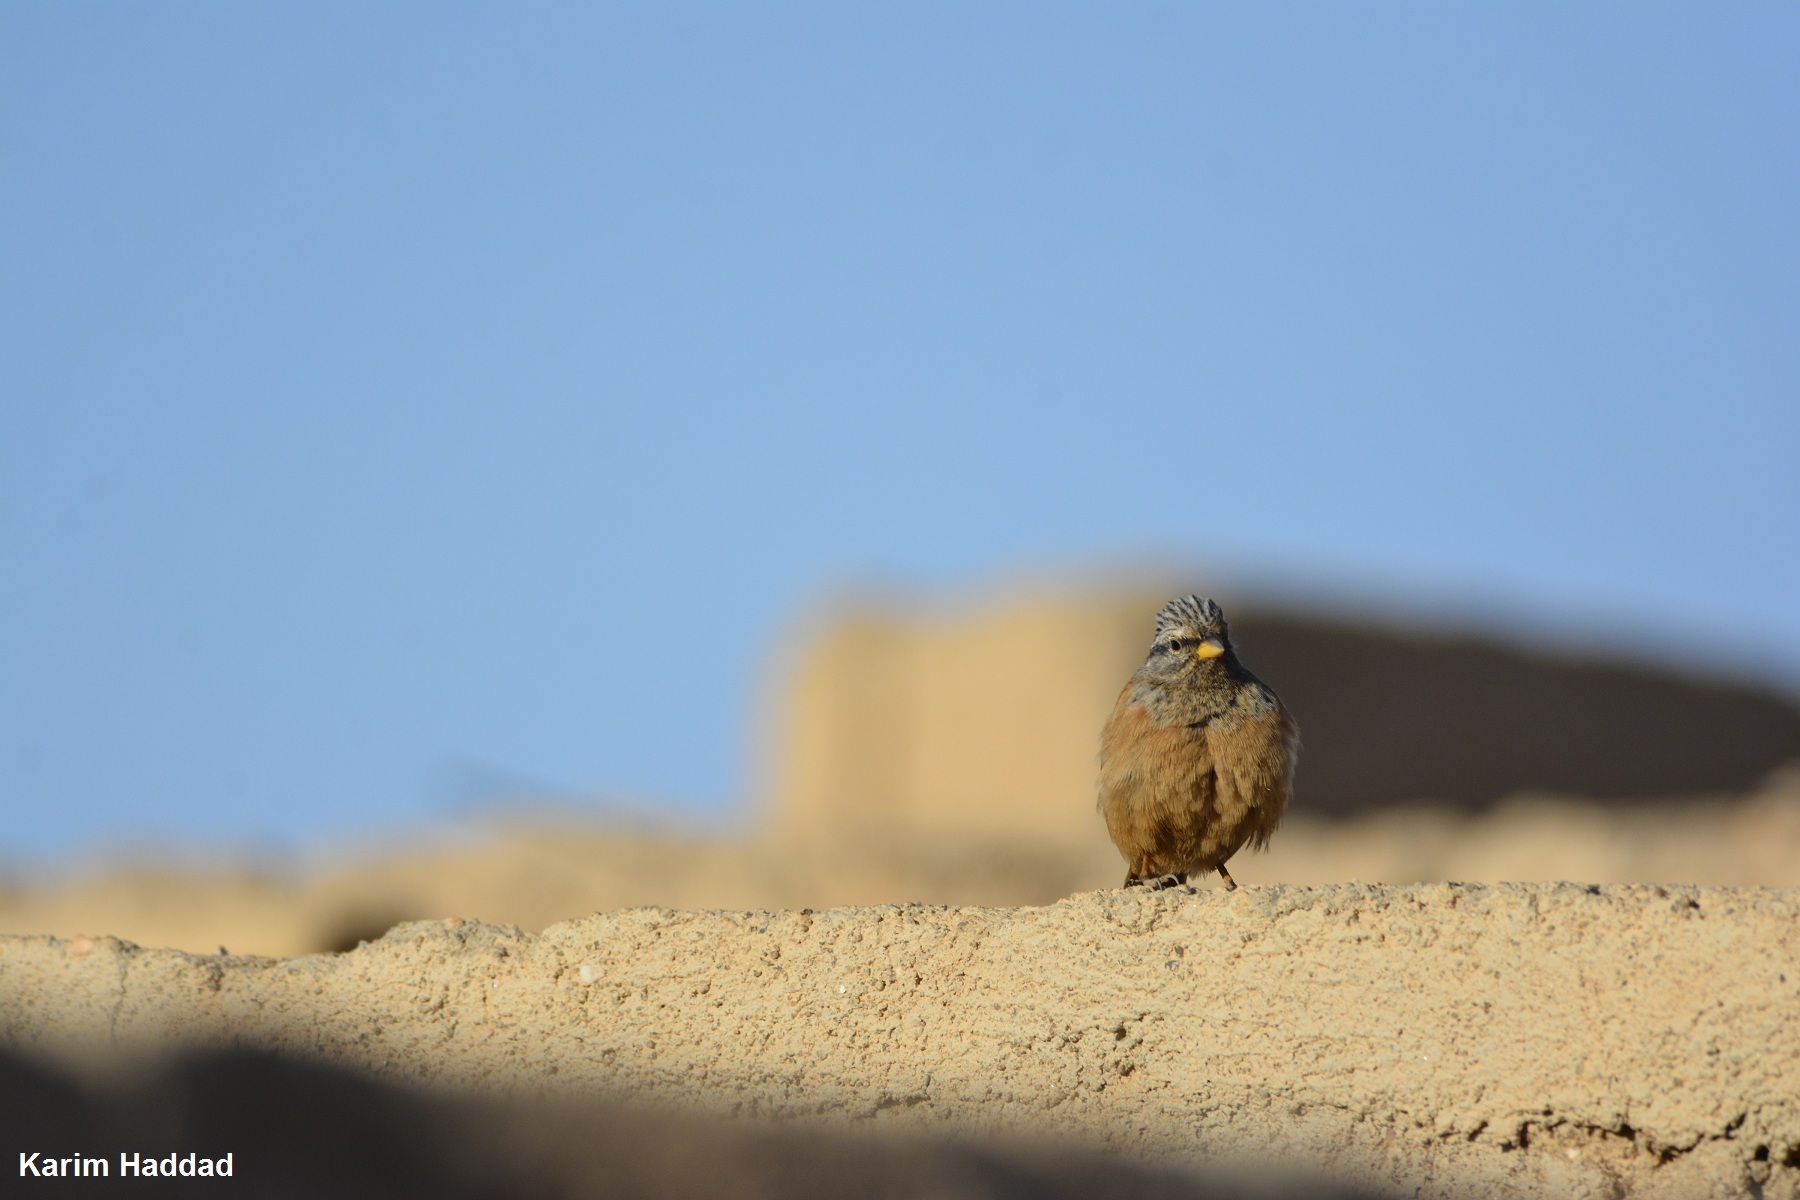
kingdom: Animalia
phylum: Chordata
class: Aves
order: Passeriformes
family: Emberizidae
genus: Emberiza
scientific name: Emberiza sahari
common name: House bunting
